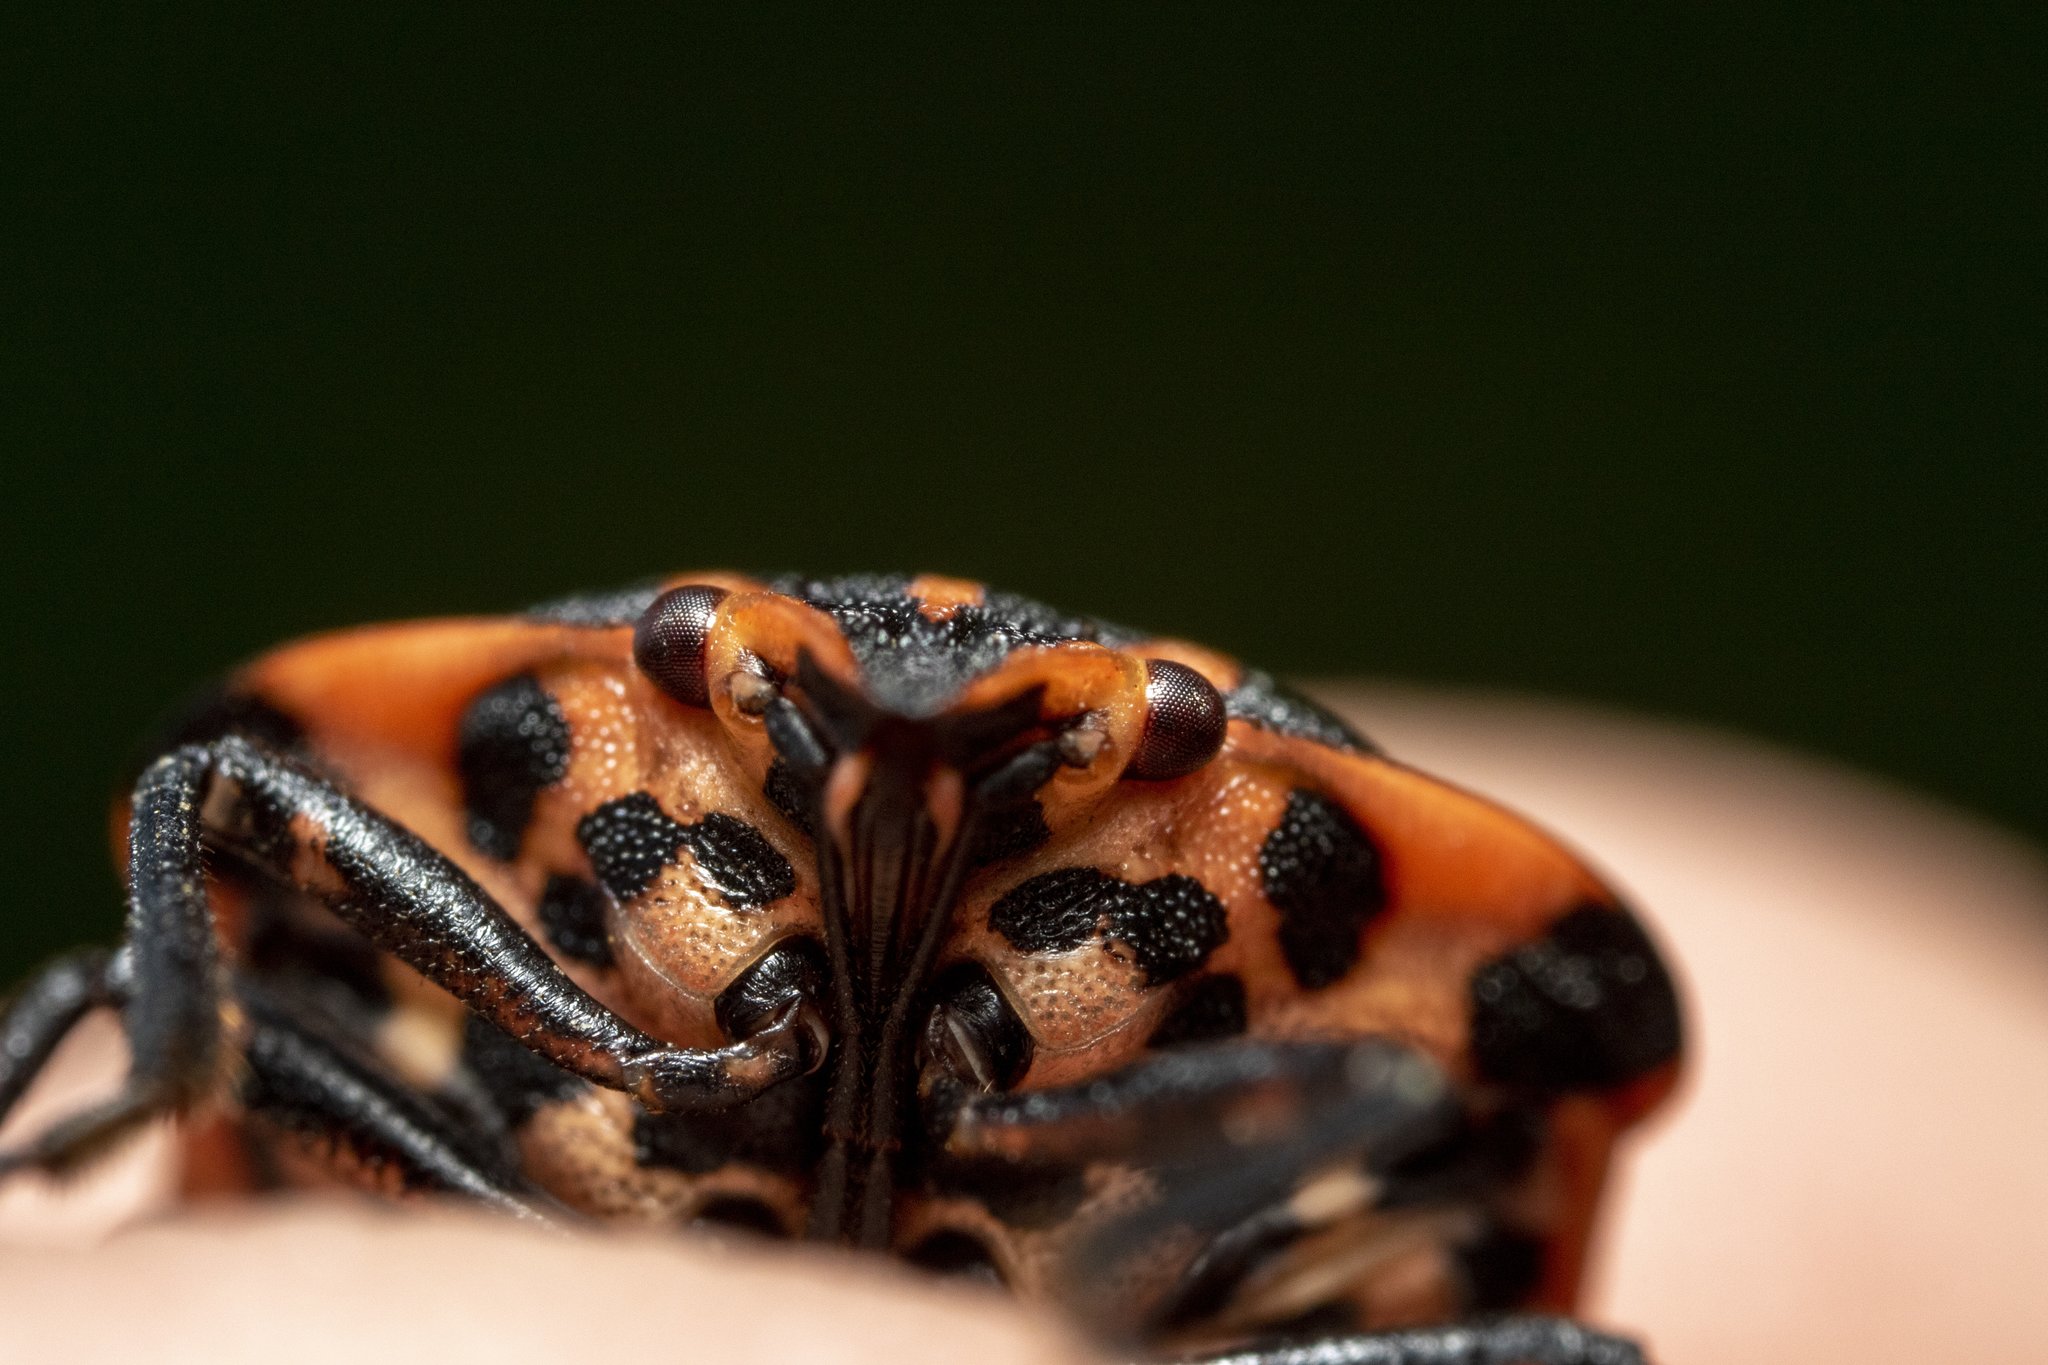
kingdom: Animalia
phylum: Arthropoda
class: Insecta
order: Hemiptera
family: Pentatomidae
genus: Graphosoma
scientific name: Graphosoma italicum
